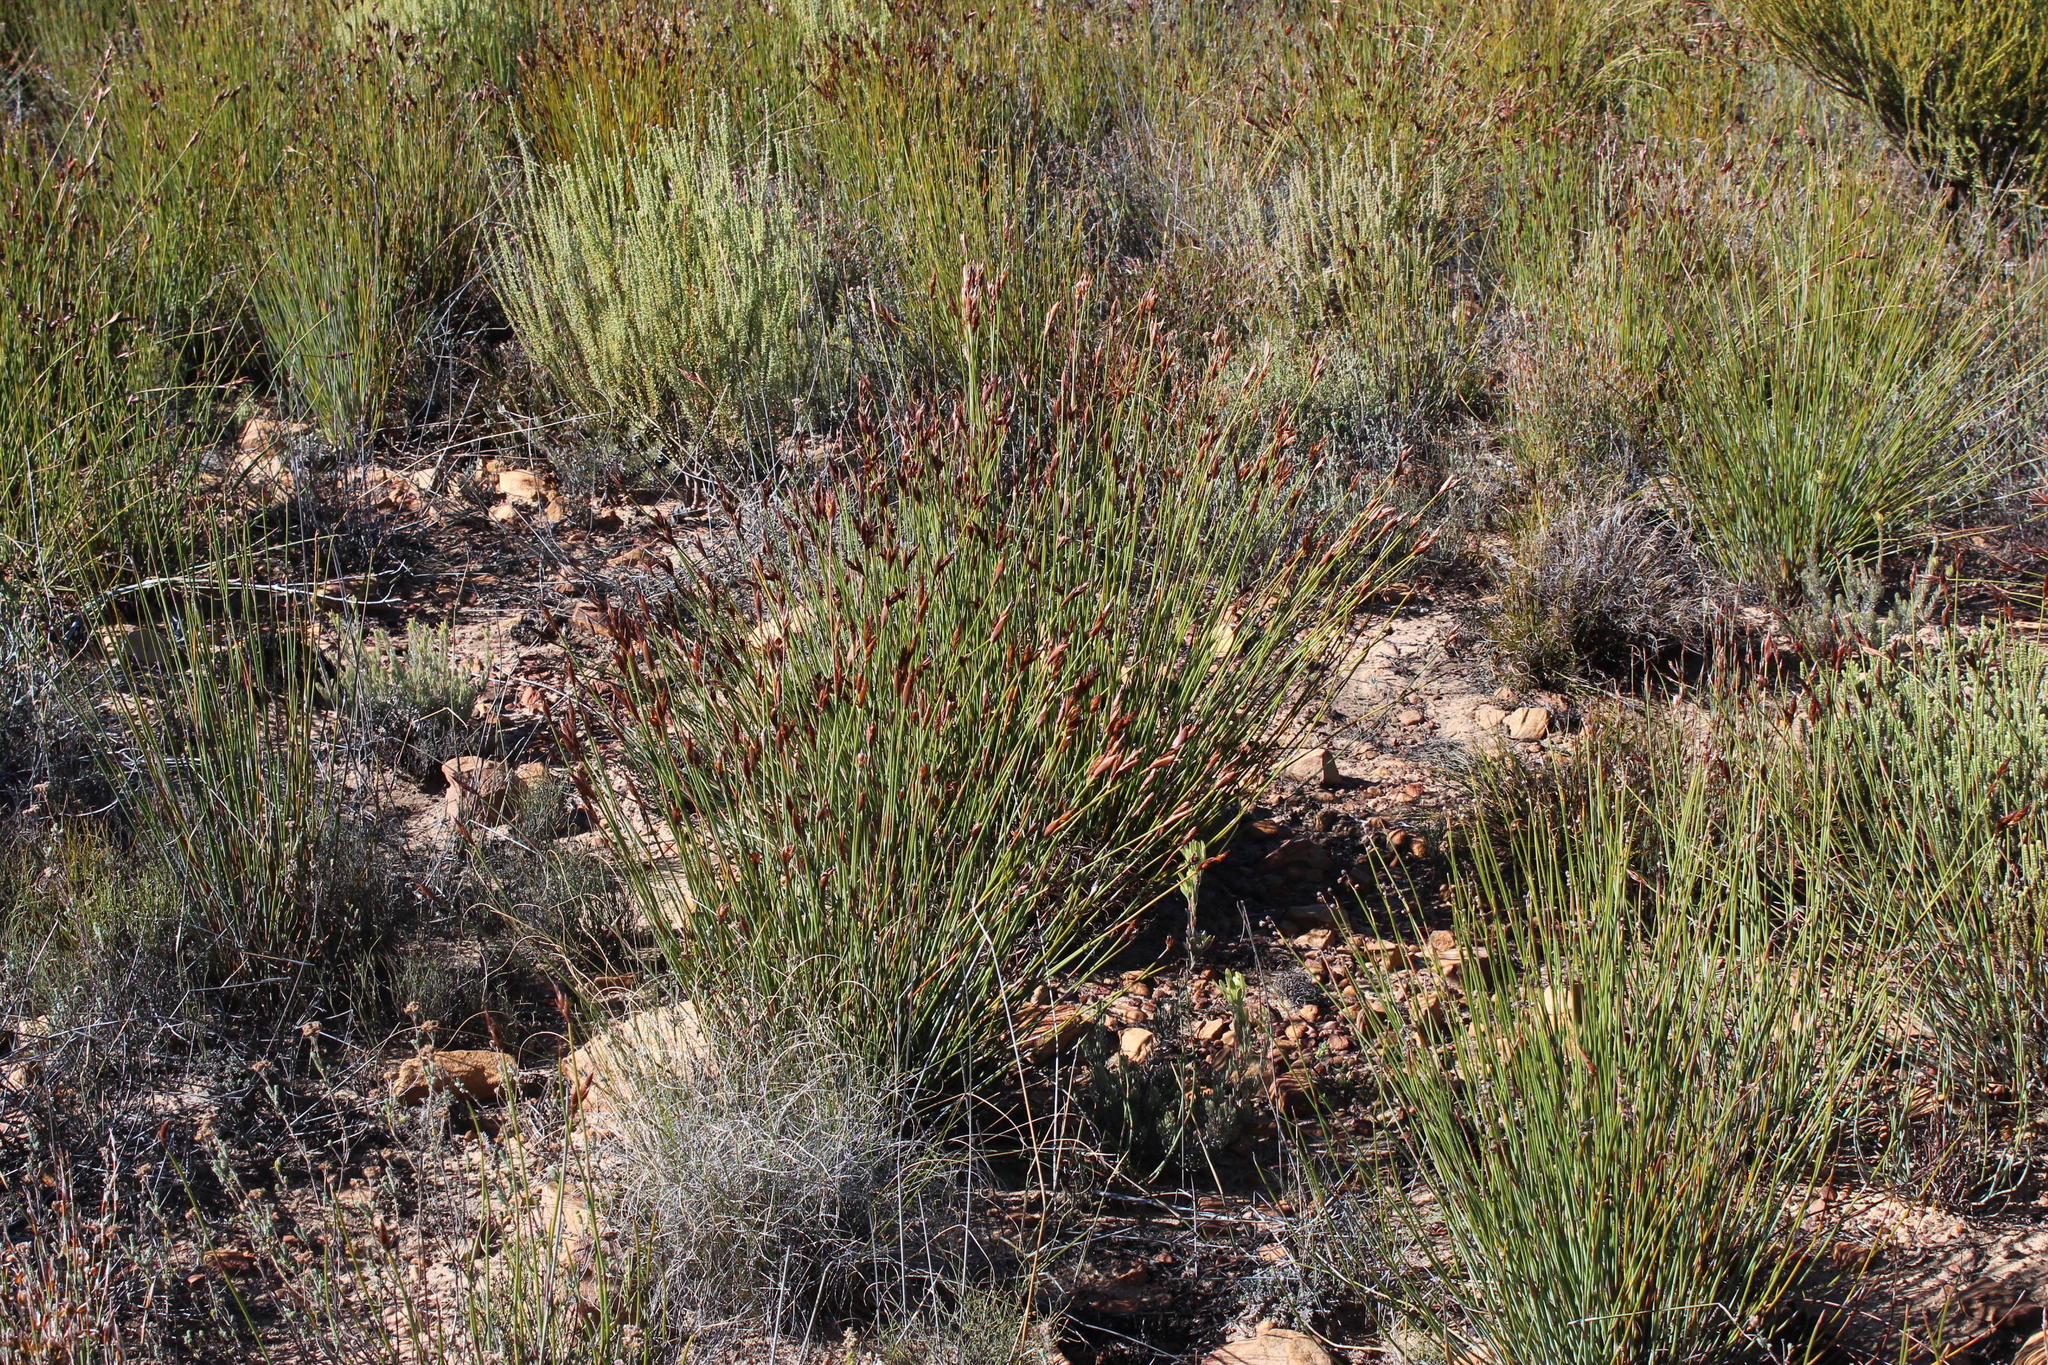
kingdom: Plantae
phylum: Tracheophyta
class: Liliopsida
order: Poales
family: Restionaceae
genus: Cannomois
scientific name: Cannomois aristata
